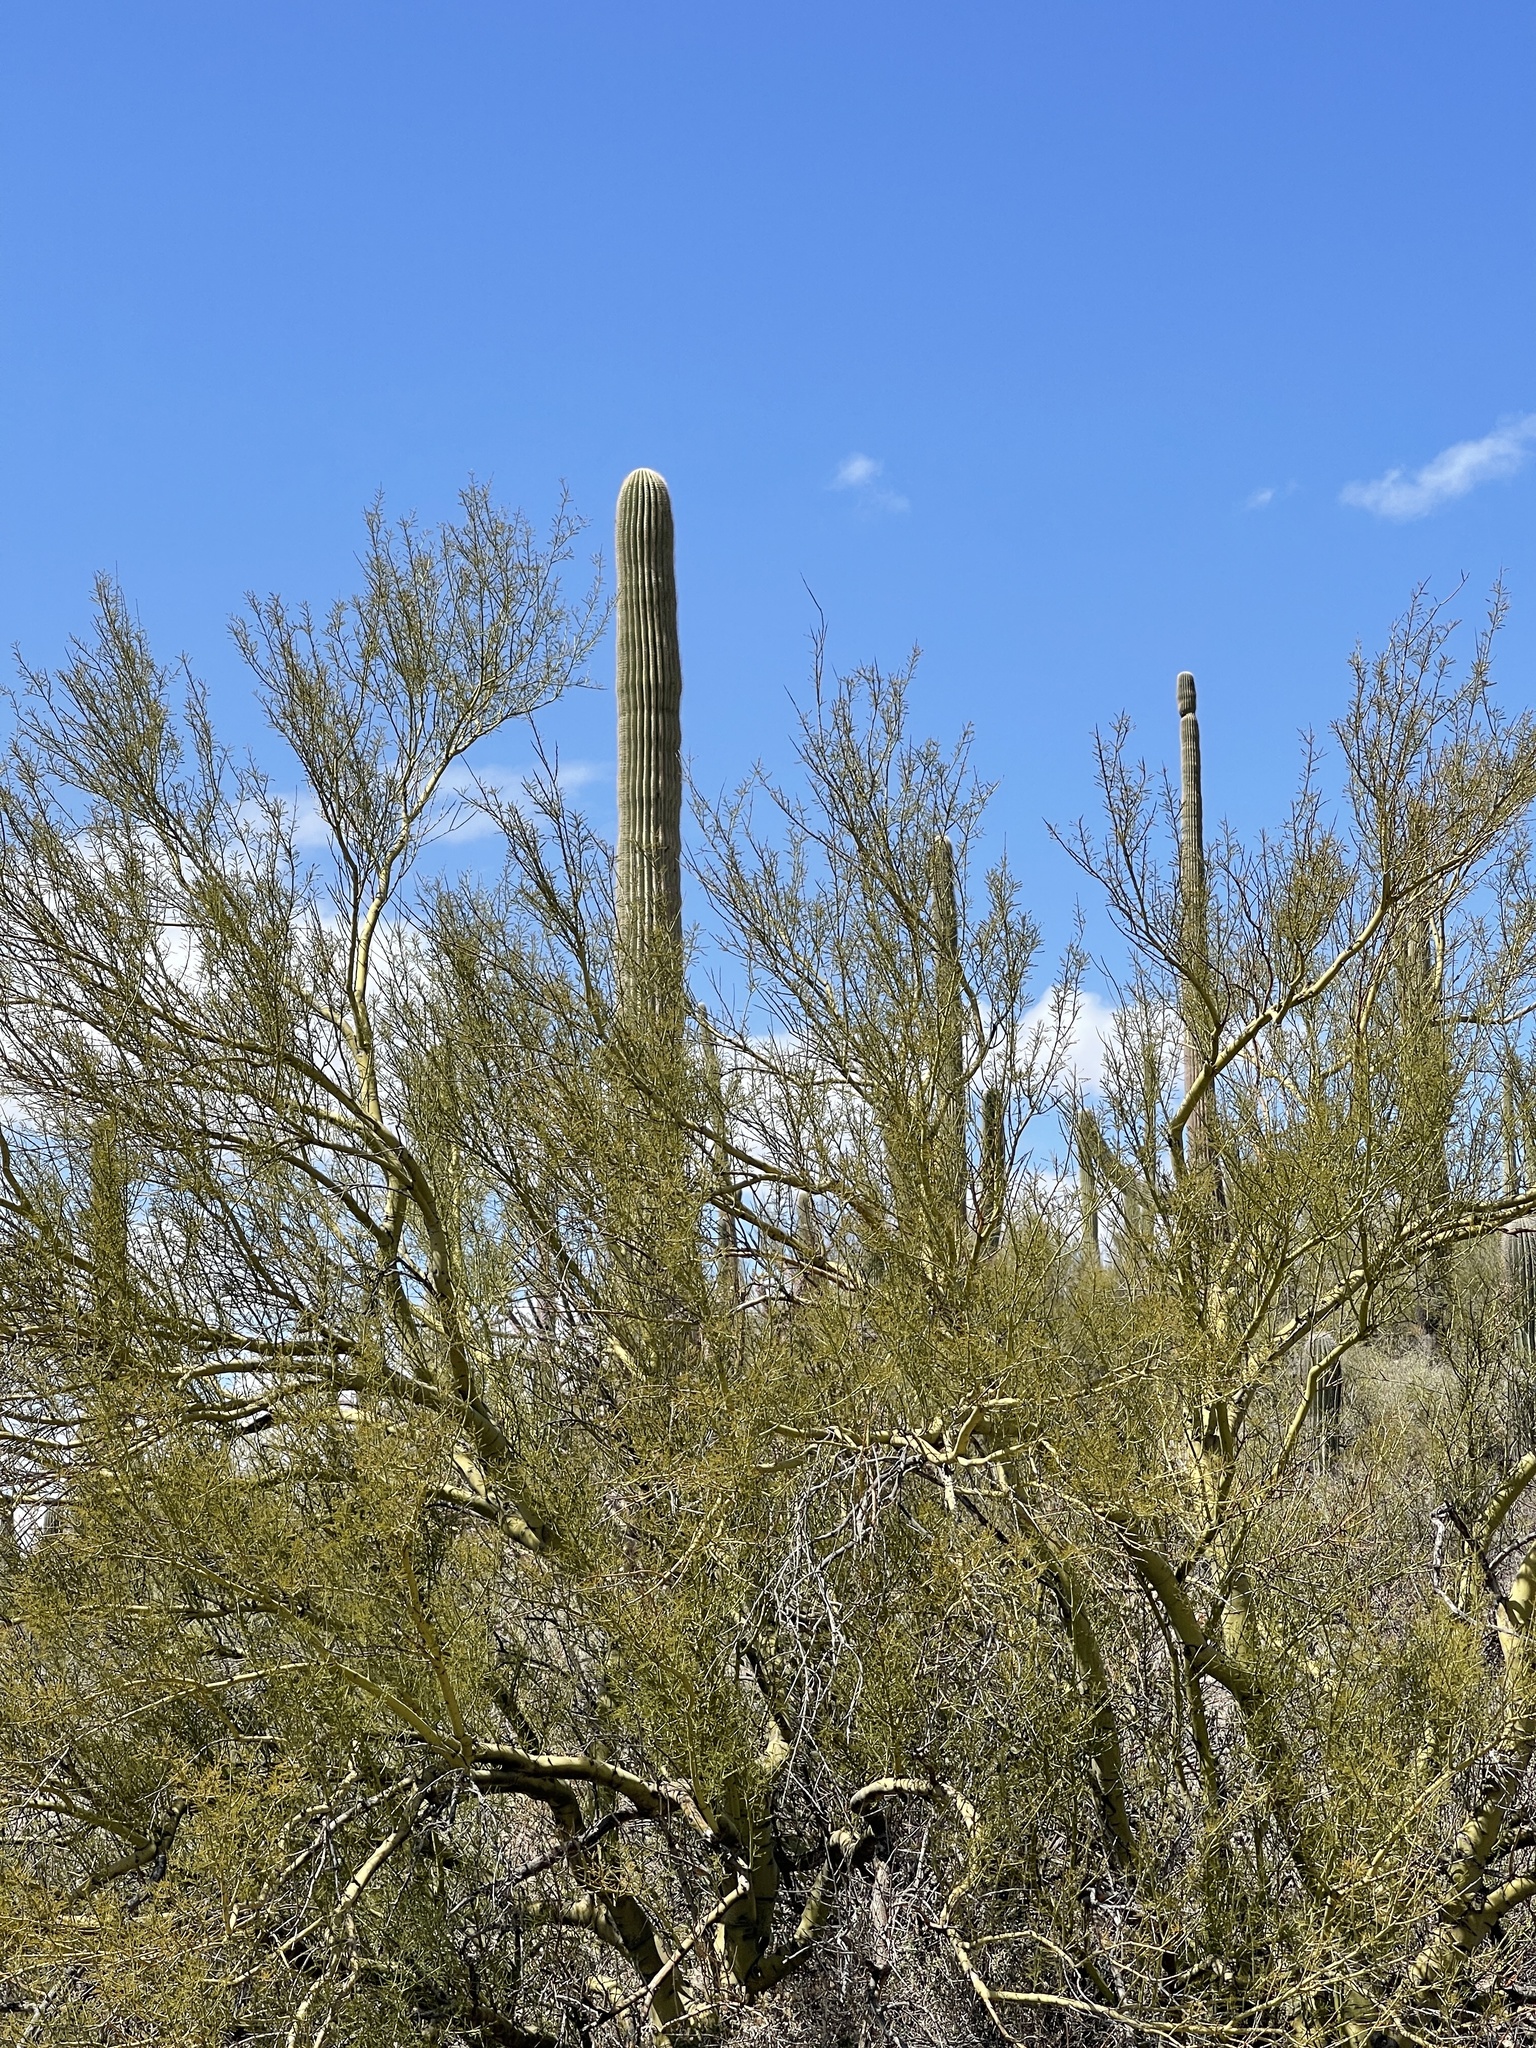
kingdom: Plantae
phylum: Tracheophyta
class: Magnoliopsida
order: Fabales
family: Fabaceae
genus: Parkinsonia
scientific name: Parkinsonia microphylla
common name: Yellow paloverde
